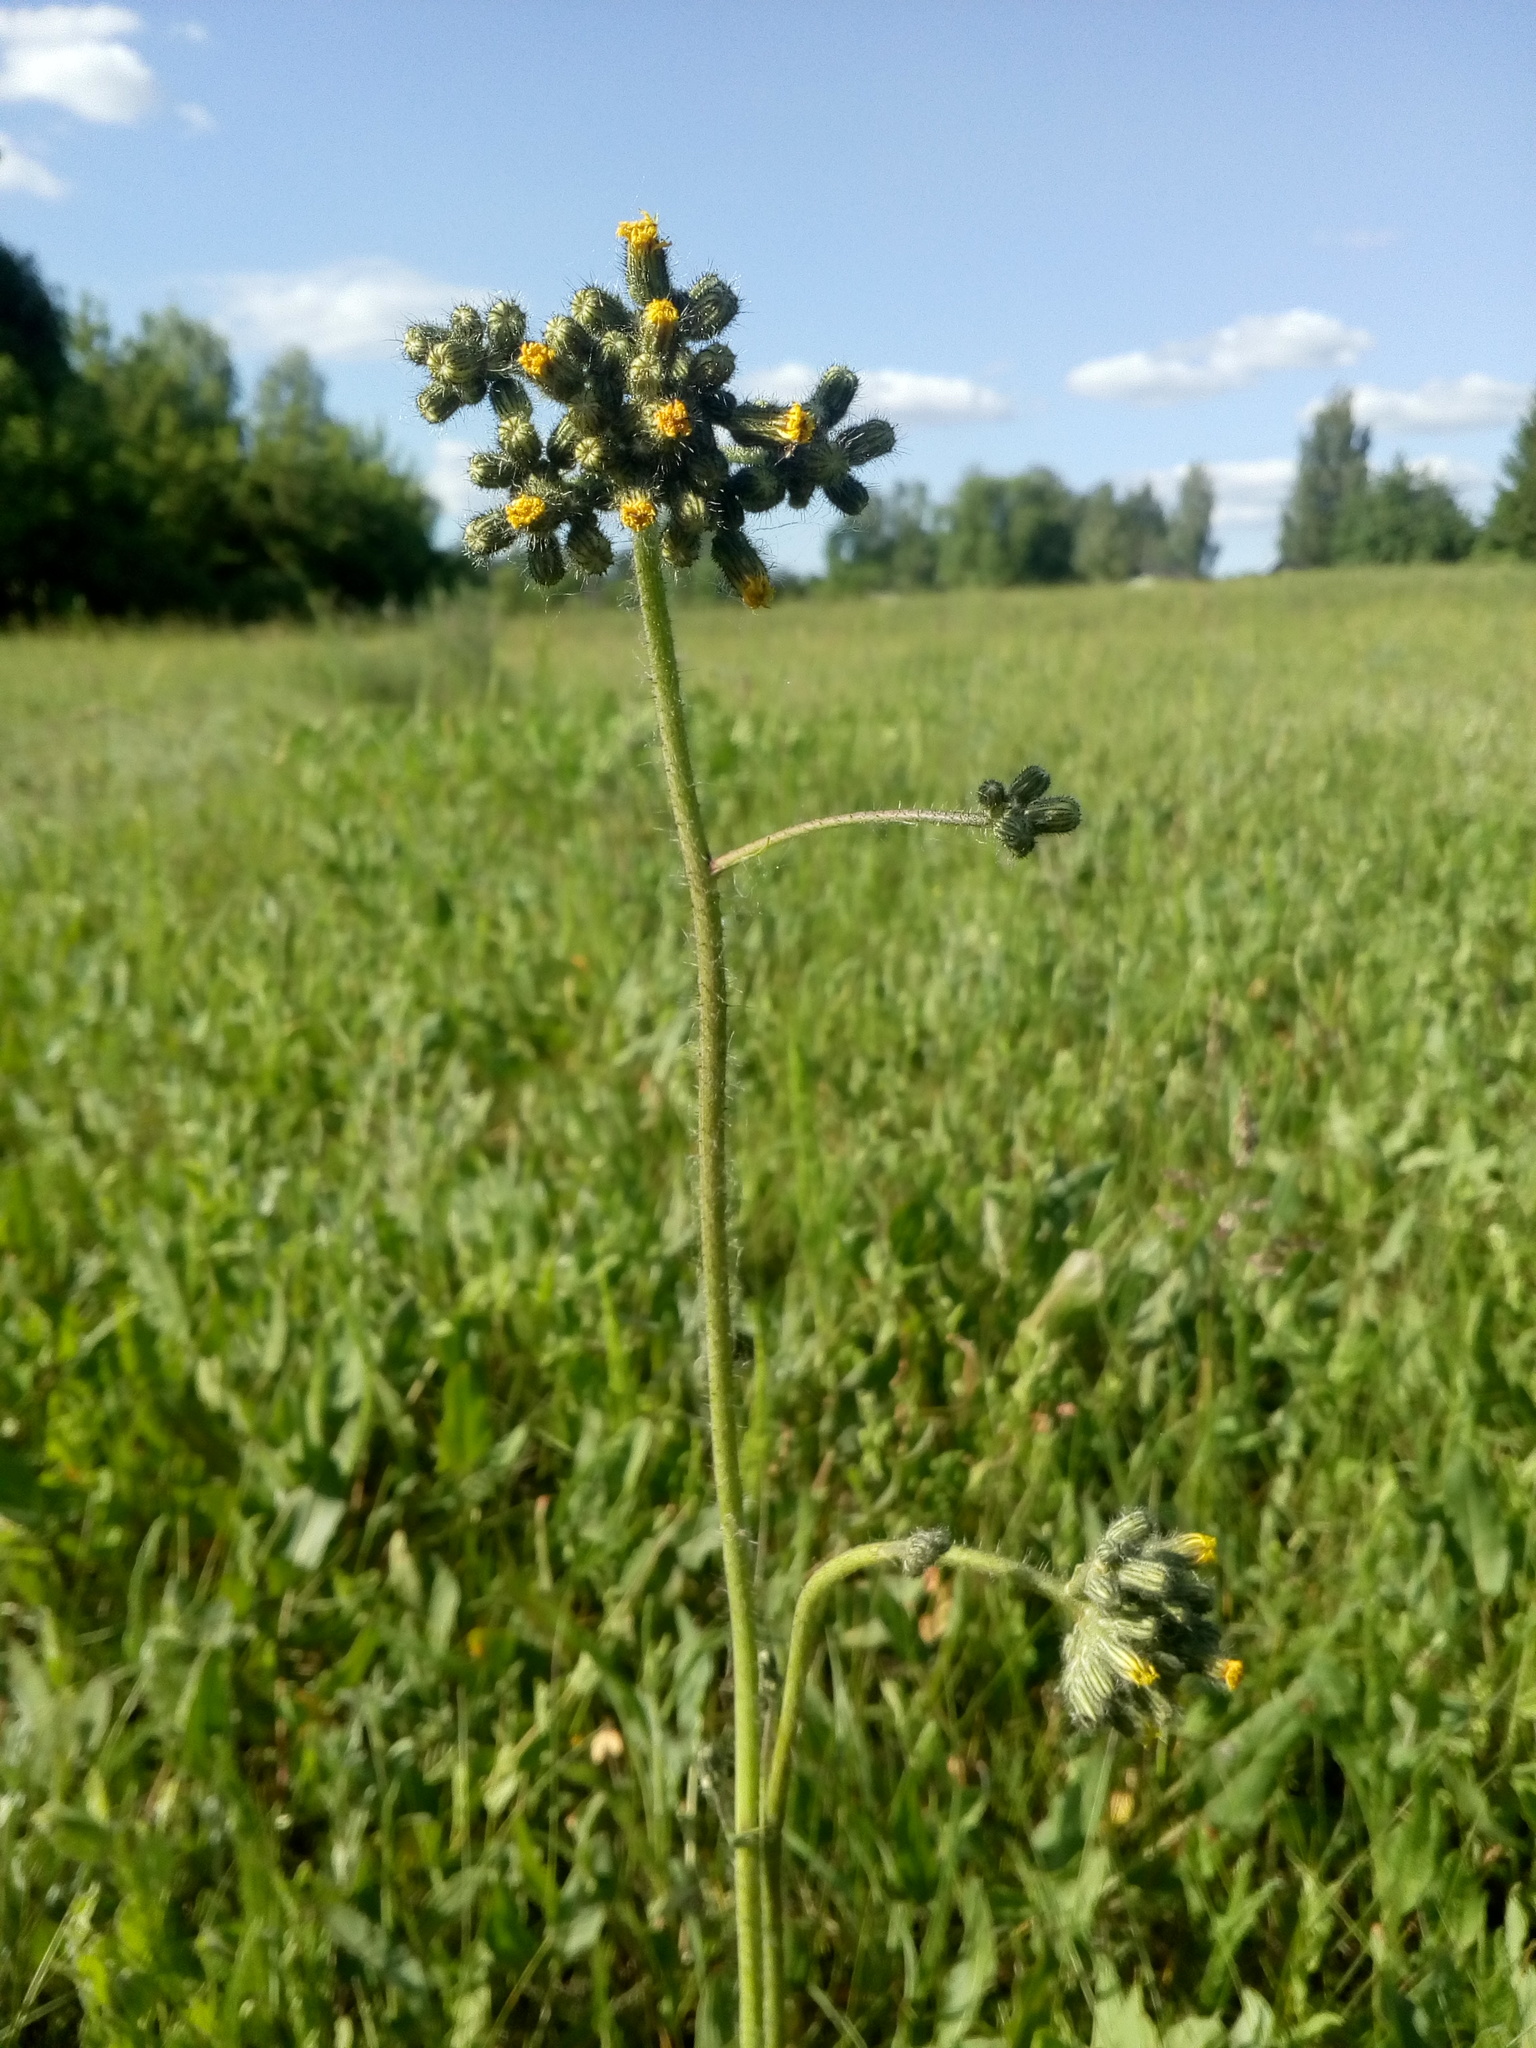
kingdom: Plantae
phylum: Tracheophyta
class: Magnoliopsida
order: Asterales
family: Asteraceae
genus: Pilosella
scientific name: Pilosella
